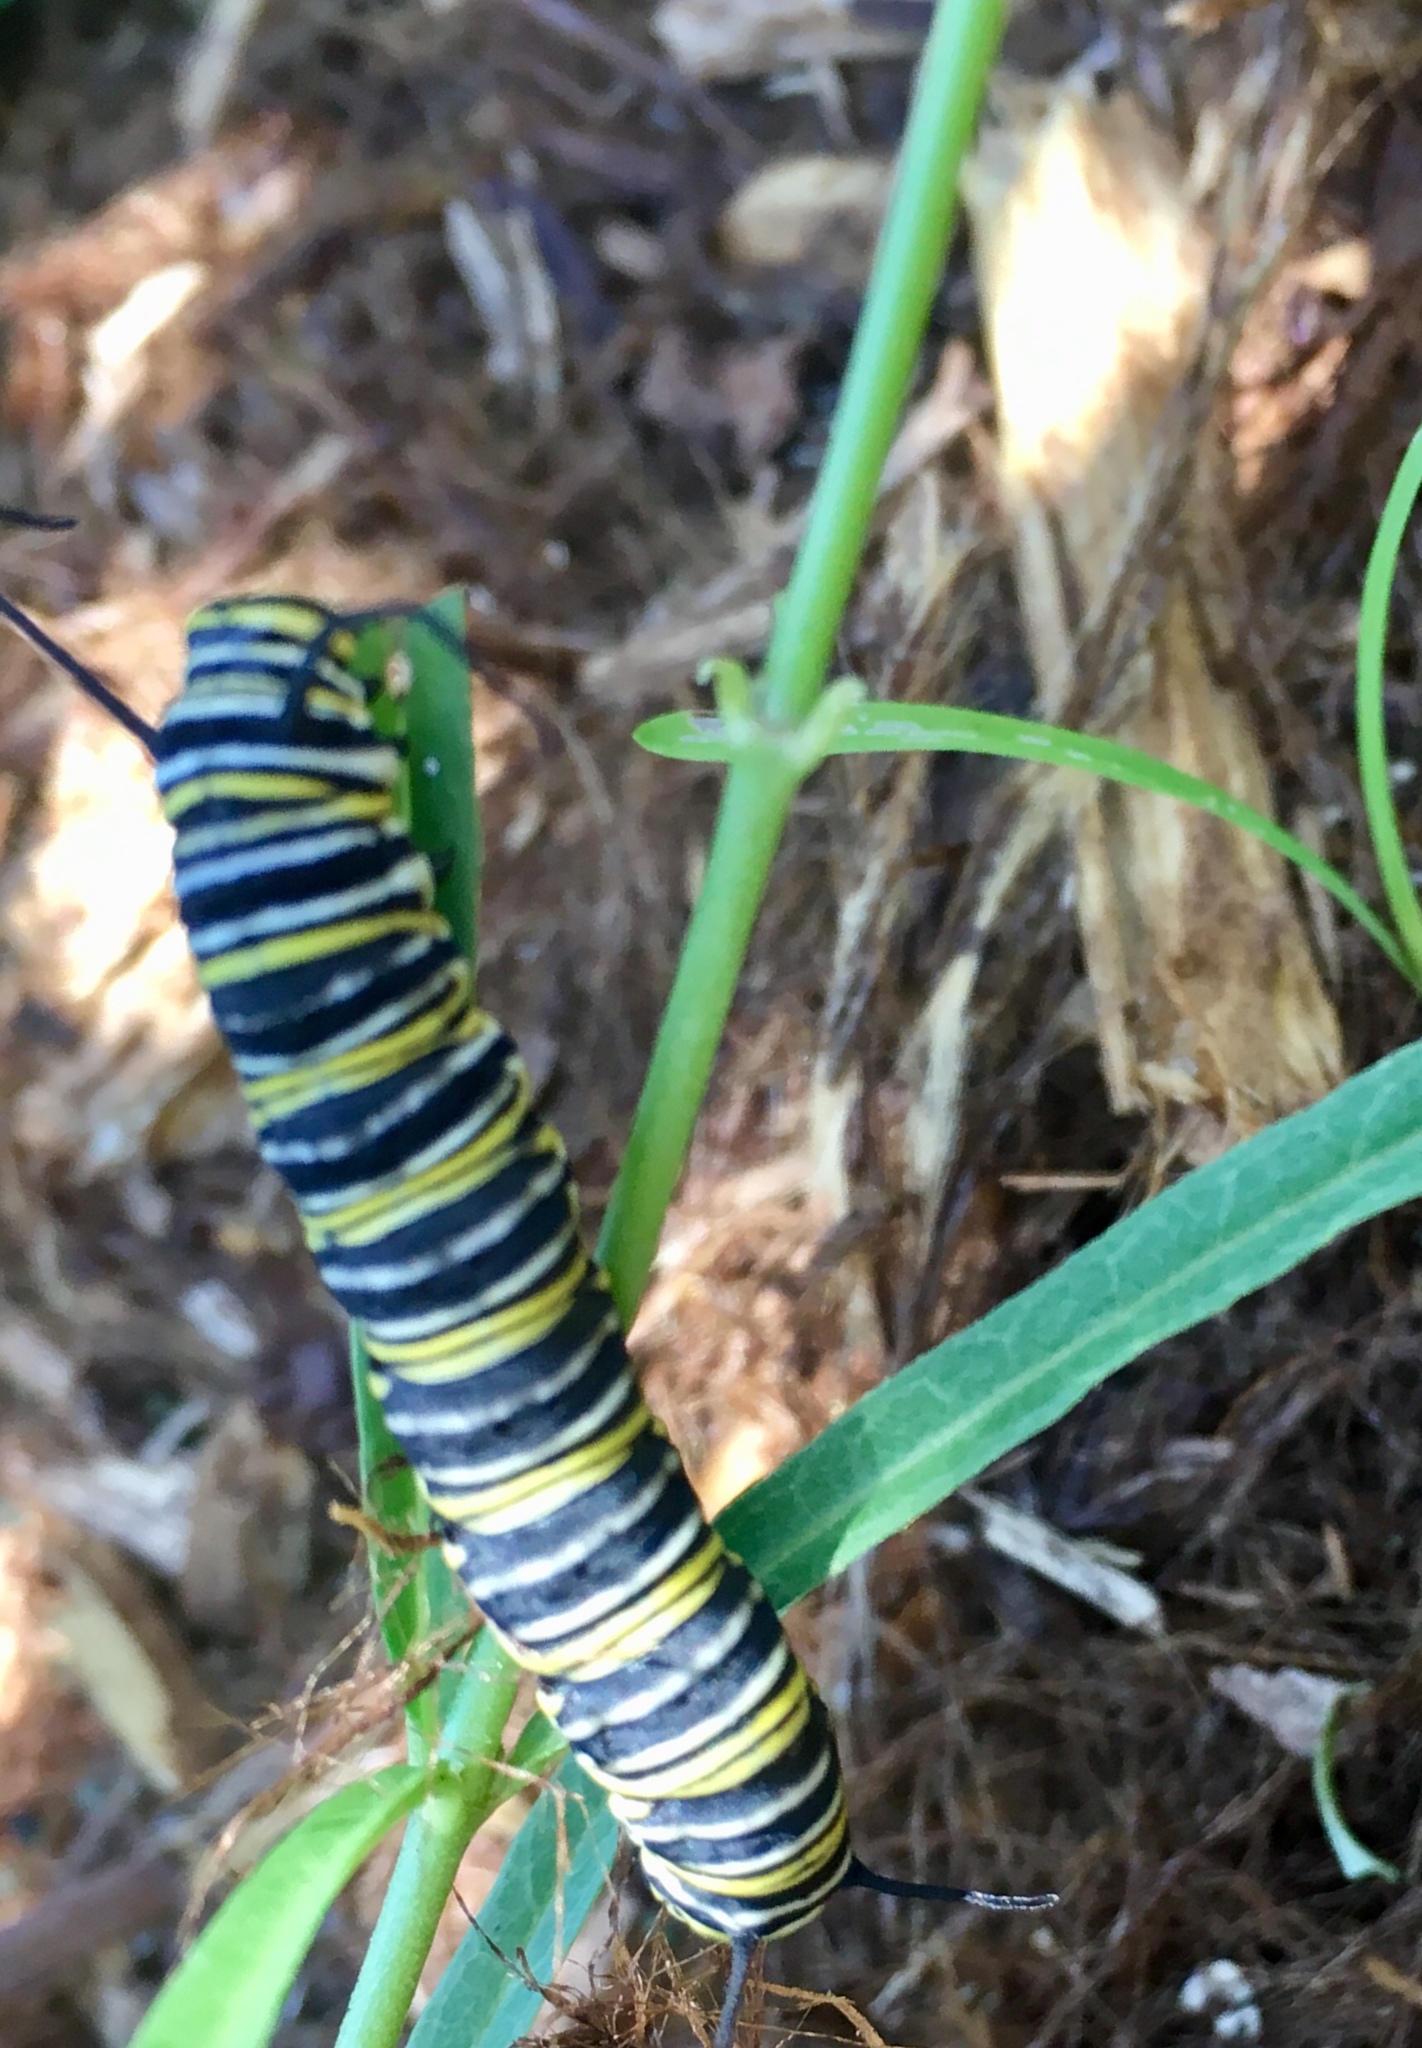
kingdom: Animalia
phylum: Arthropoda
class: Insecta
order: Lepidoptera
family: Nymphalidae
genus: Danaus
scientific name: Danaus plexippus
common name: Monarch
